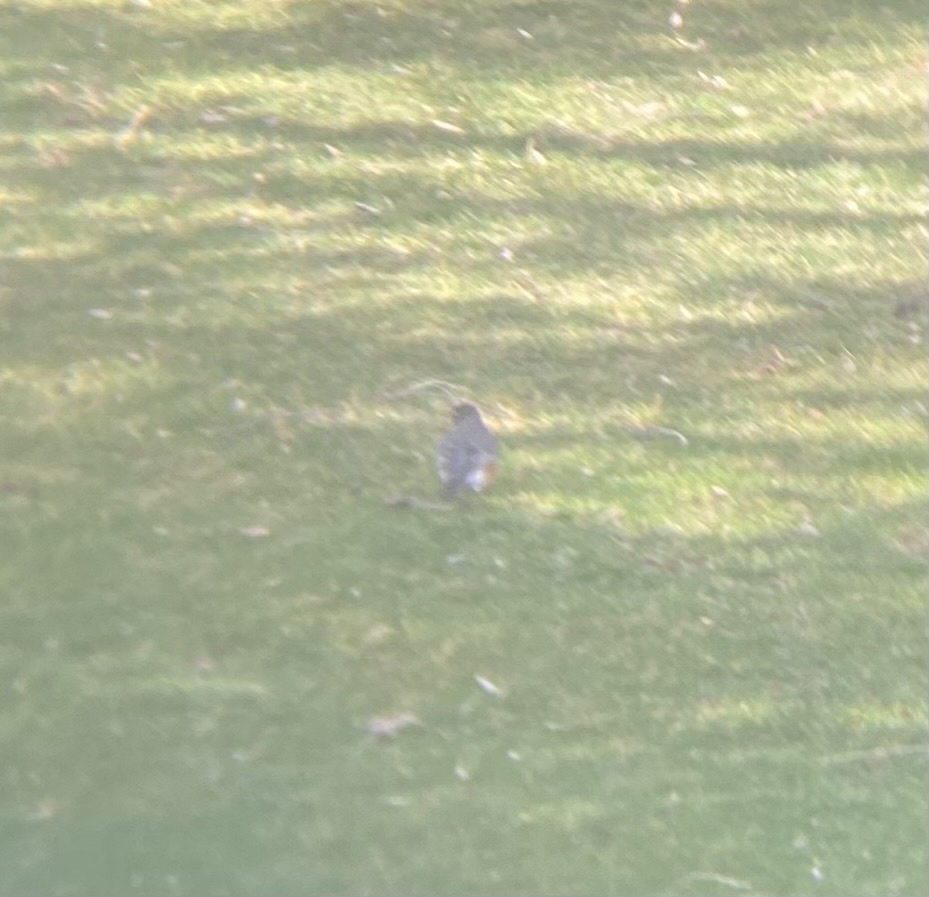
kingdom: Animalia
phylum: Chordata
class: Aves
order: Passeriformes
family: Turdidae
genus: Turdus
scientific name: Turdus migratorius
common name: American robin
